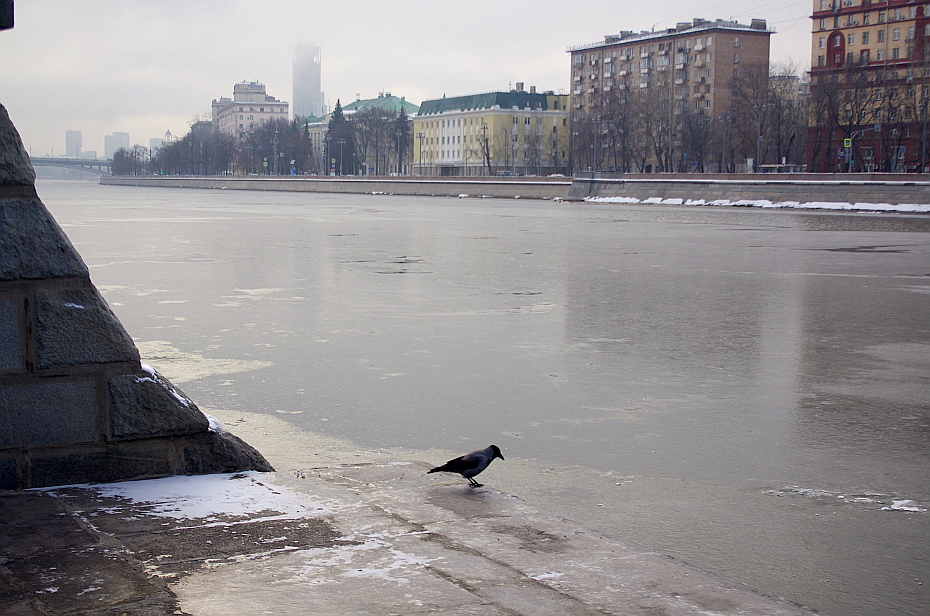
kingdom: Animalia
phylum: Chordata
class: Aves
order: Passeriformes
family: Corvidae
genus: Corvus
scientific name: Corvus cornix
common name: Hooded crow
